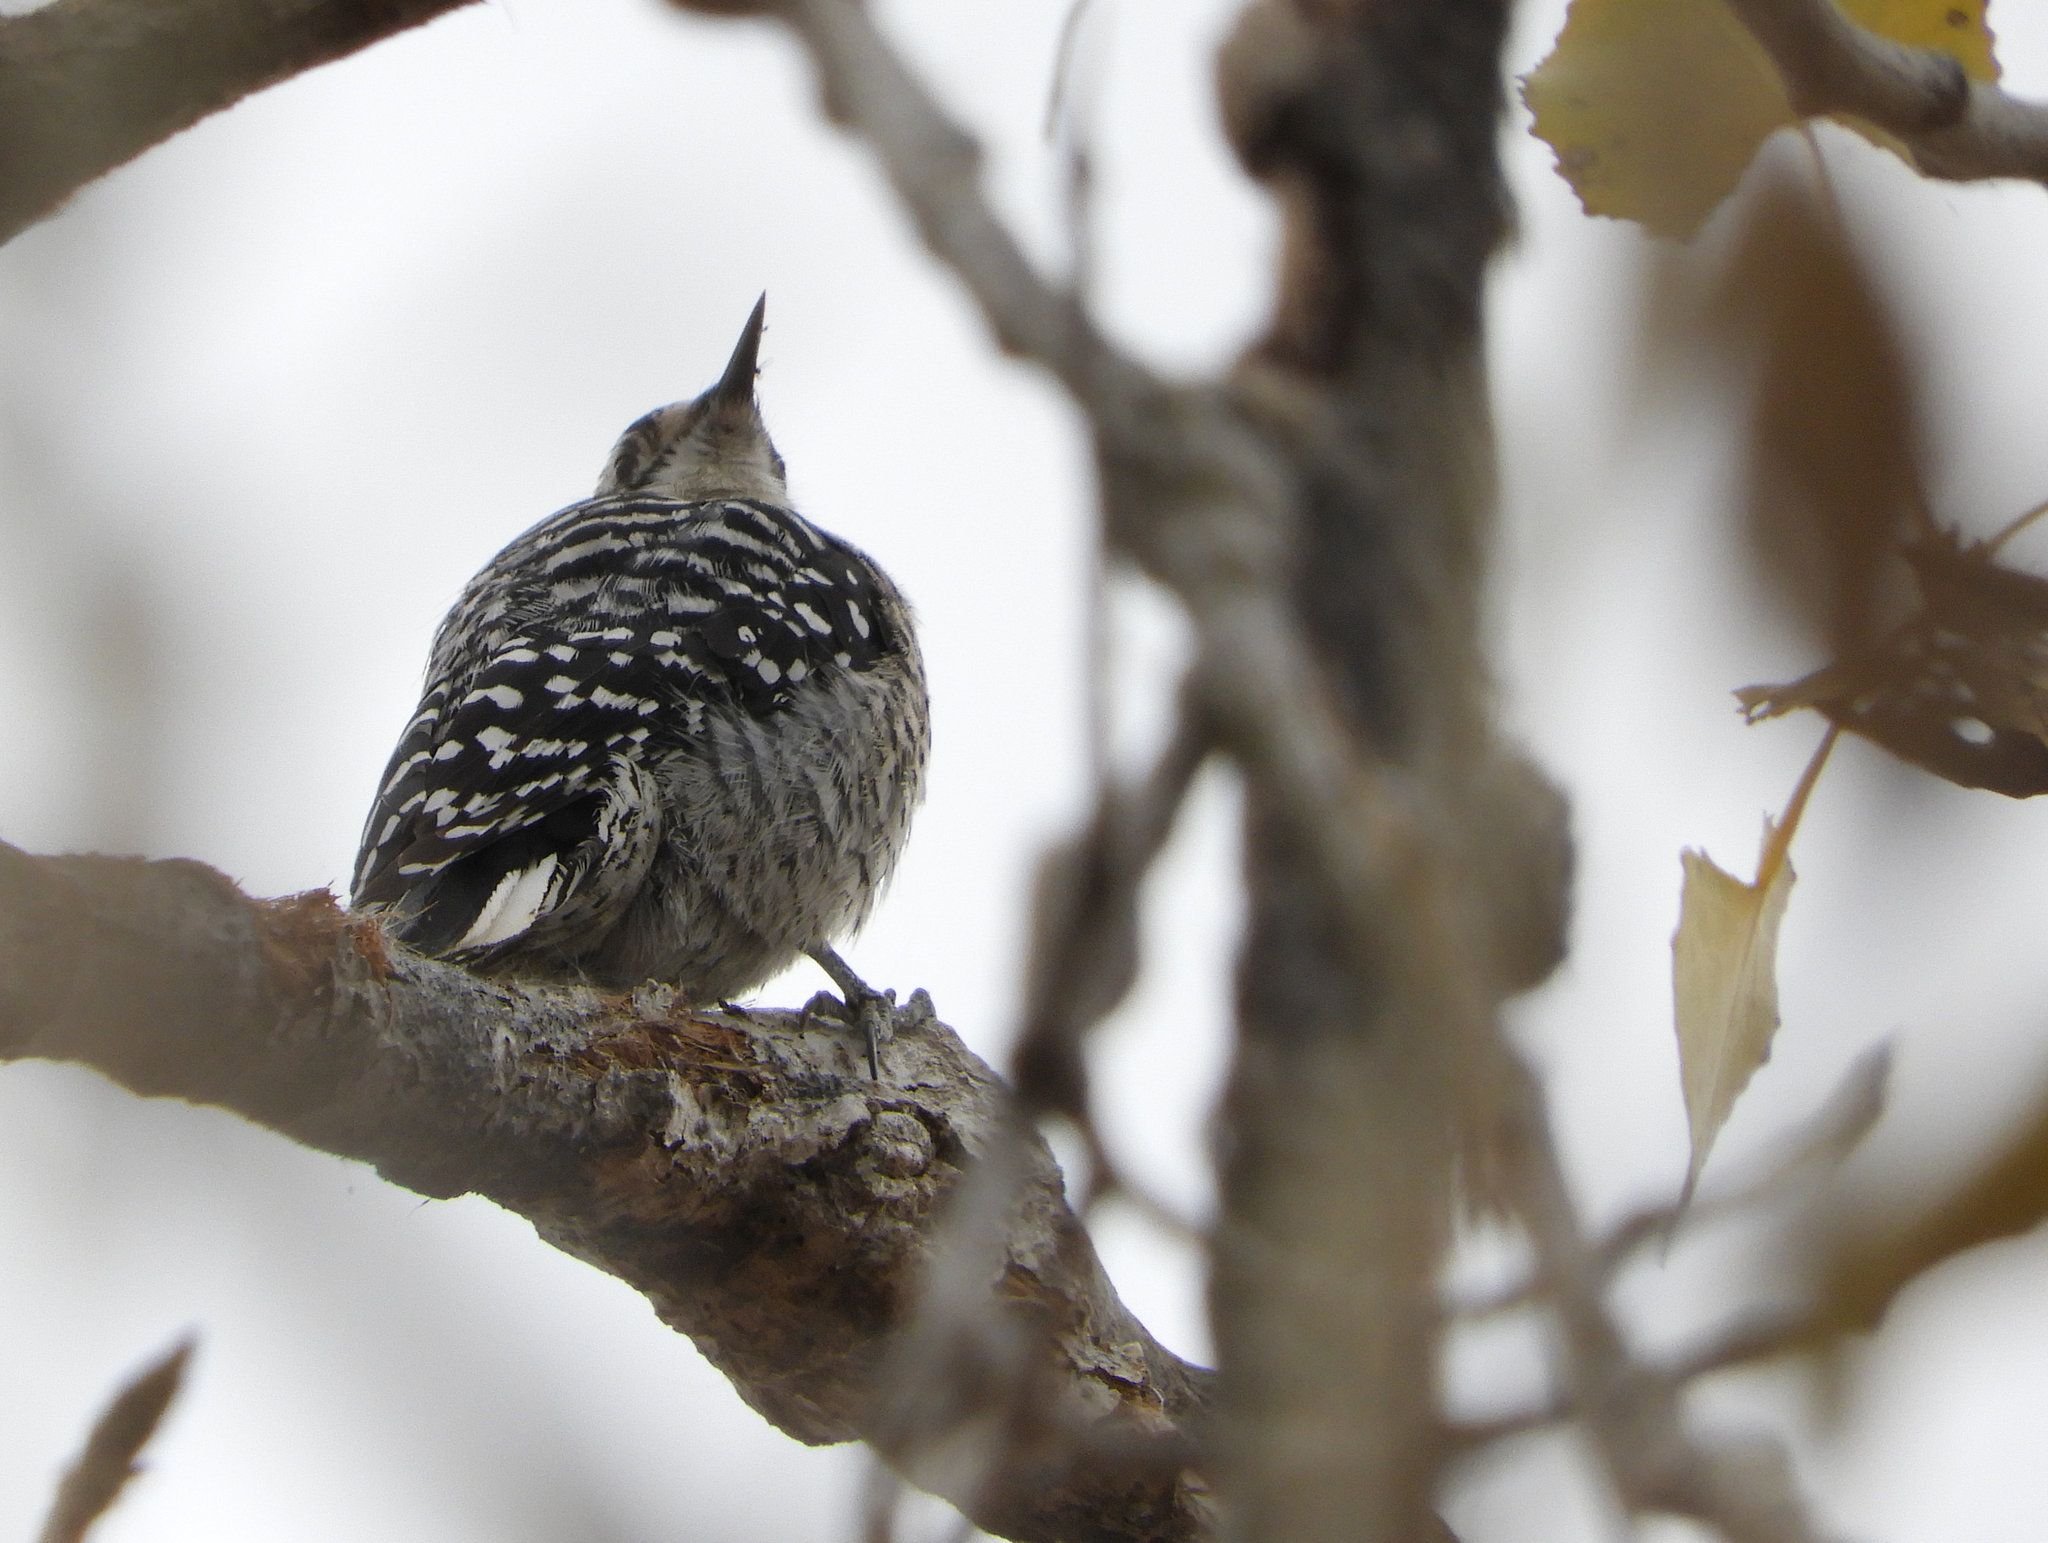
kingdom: Animalia
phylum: Chordata
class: Aves
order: Piciformes
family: Picidae
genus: Dryobates
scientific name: Dryobates nuttallii
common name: Nuttall's woodpecker
